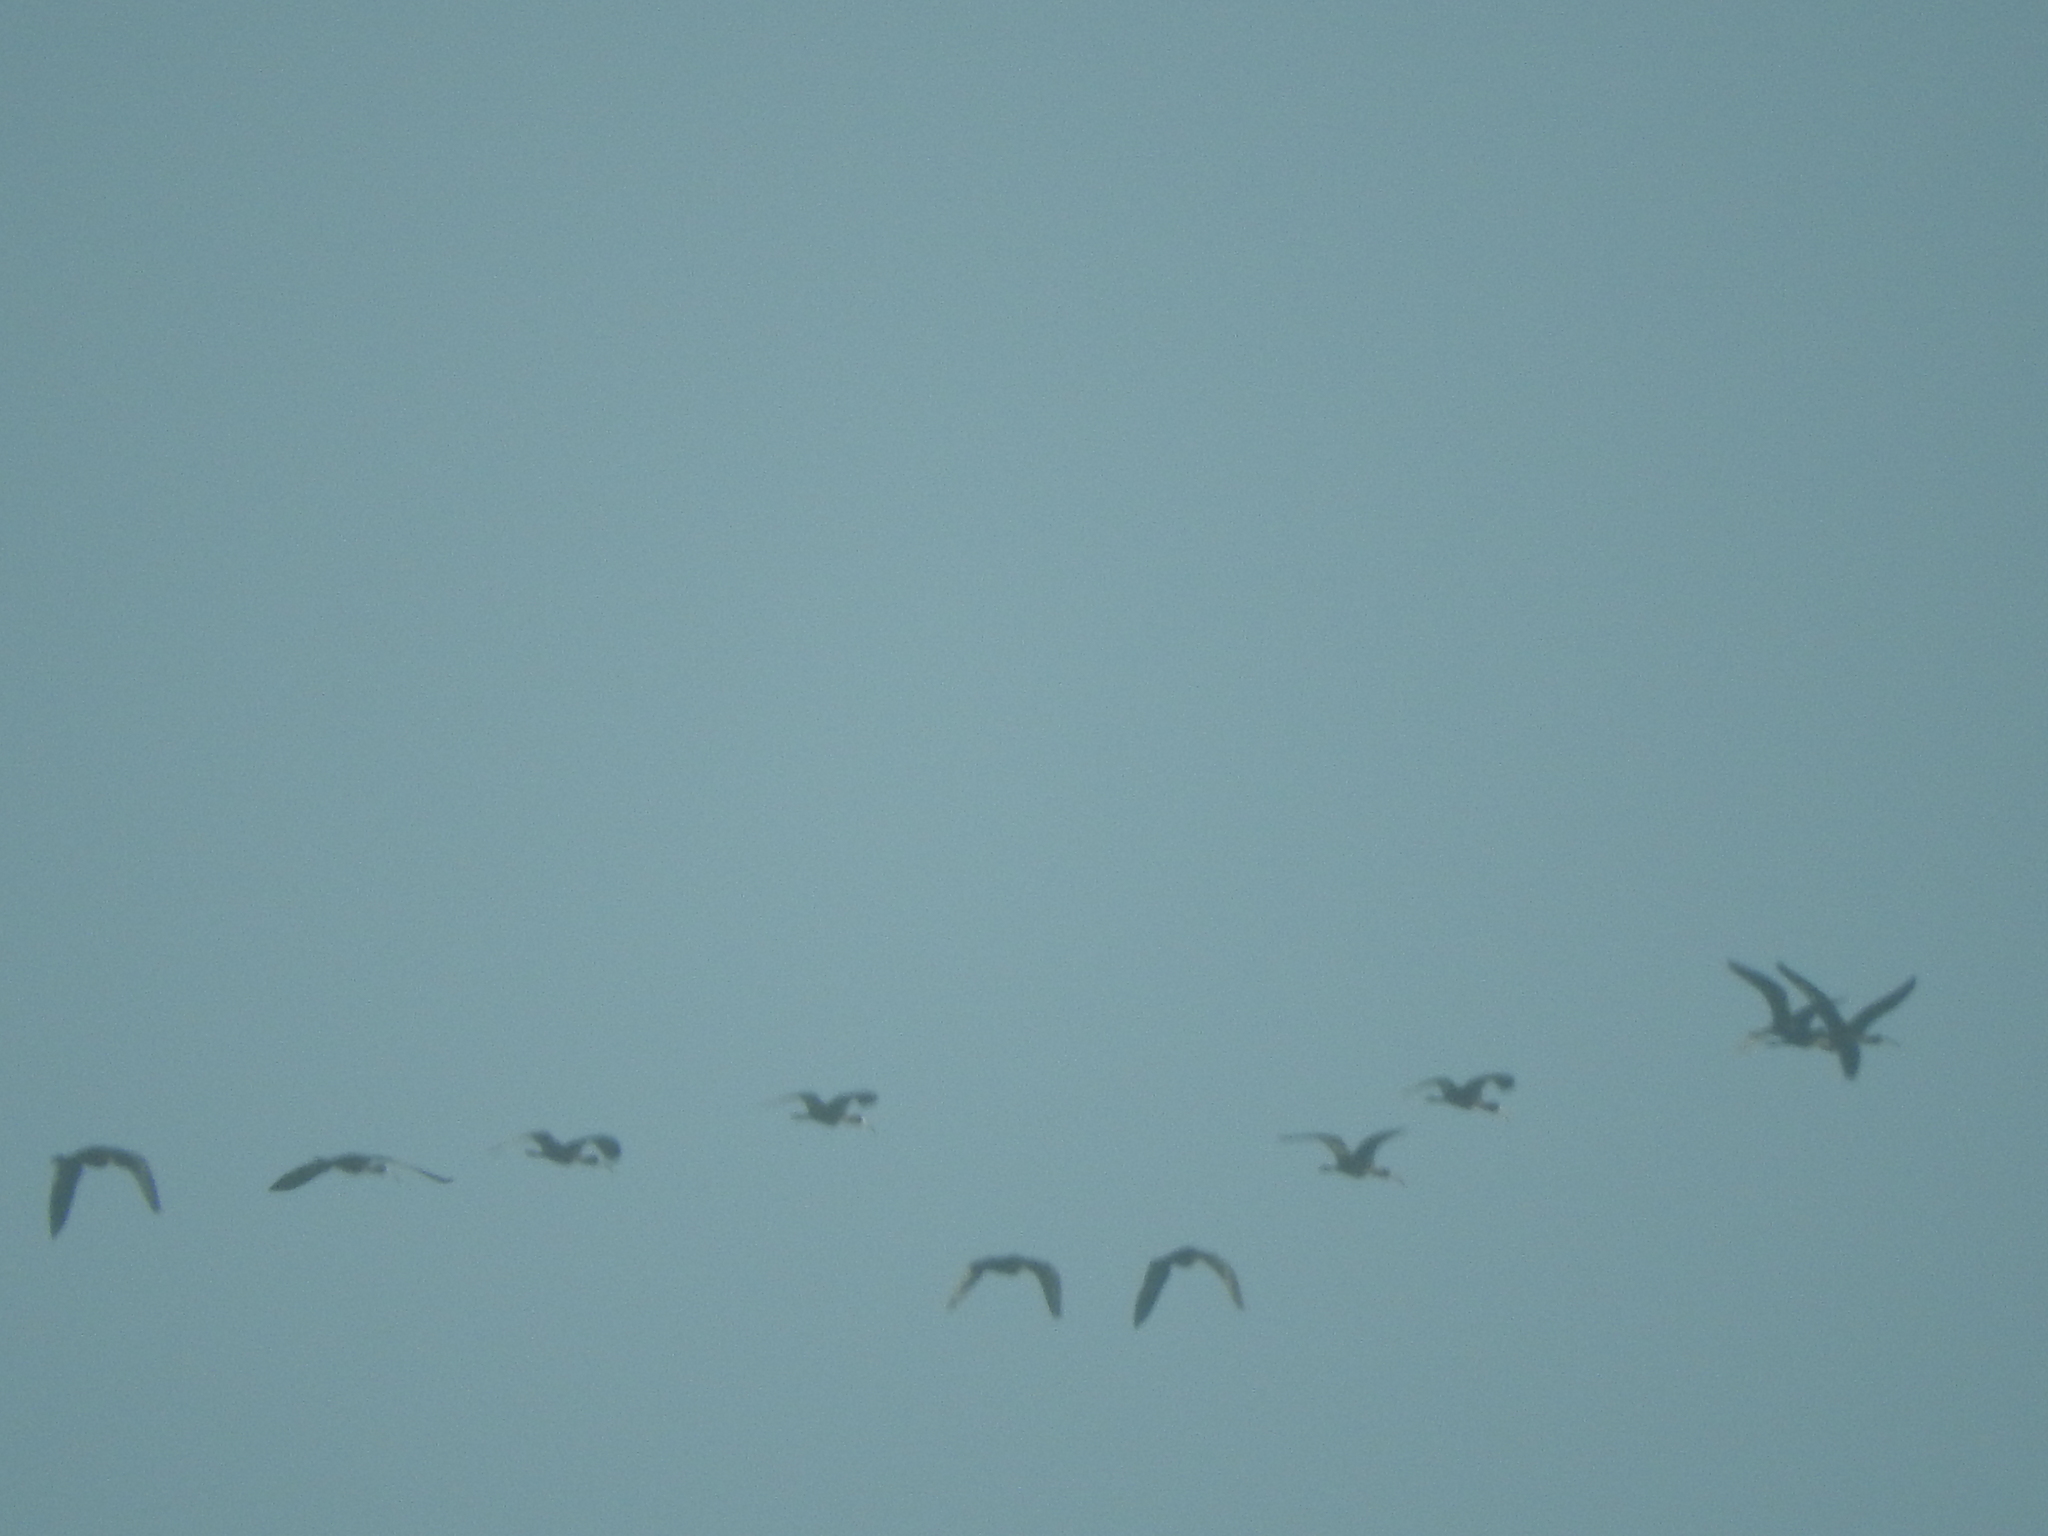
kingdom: Animalia
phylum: Chordata
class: Aves
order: Pelecaniformes
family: Threskiornithidae
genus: Plegadis
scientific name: Plegadis chihi
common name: White-faced ibis
